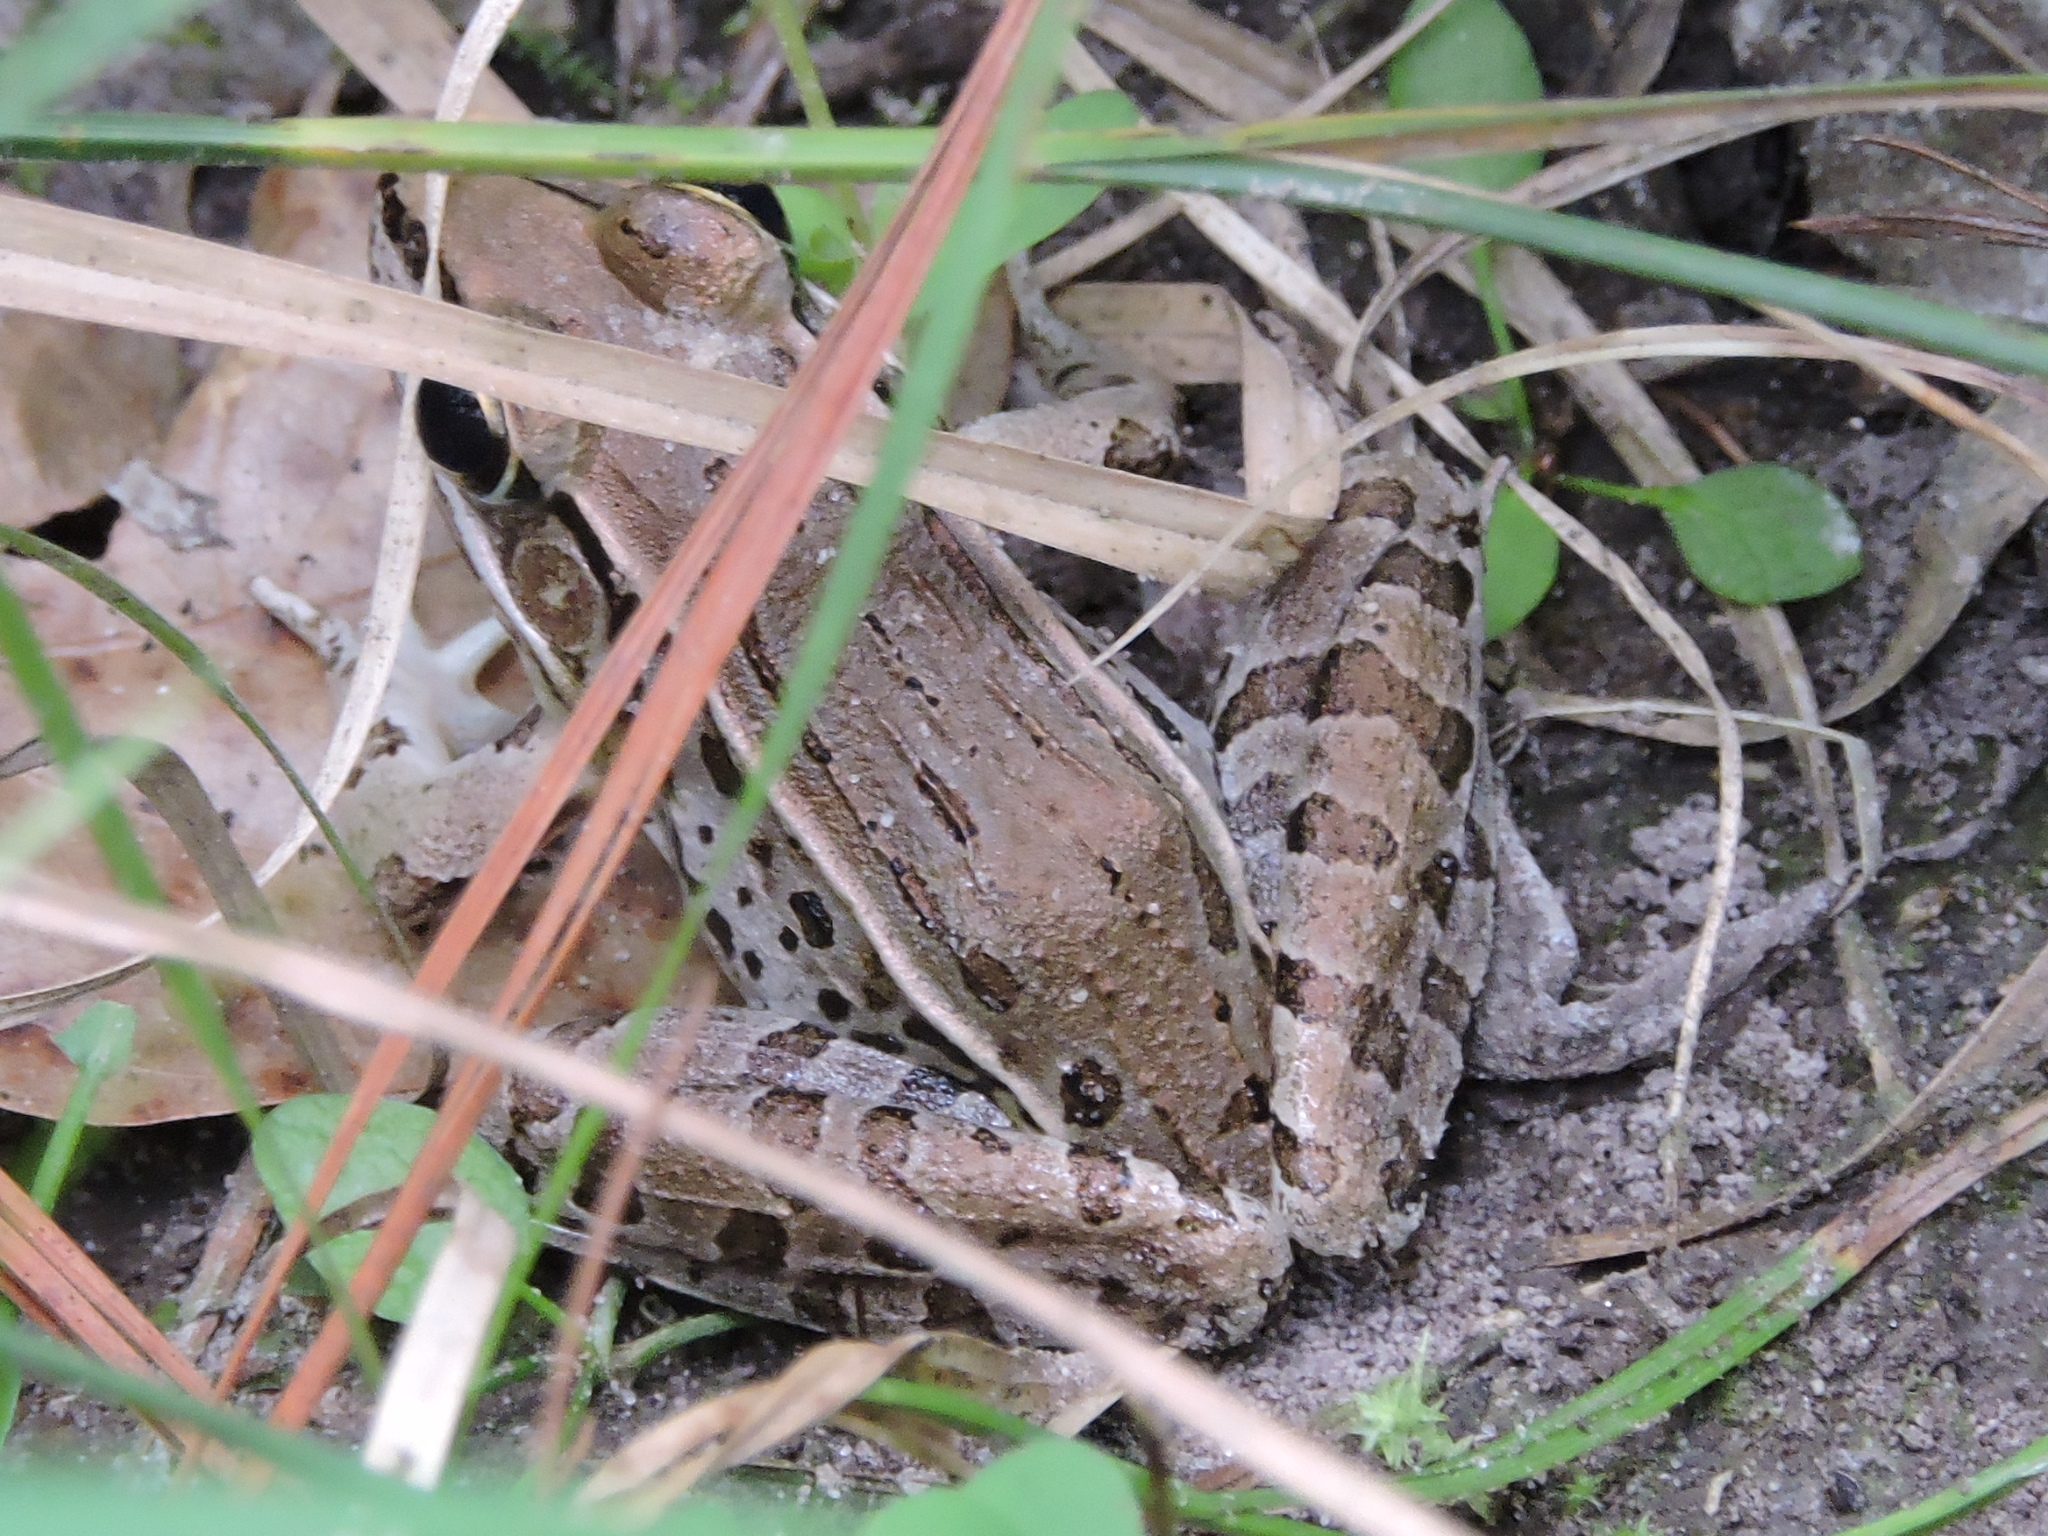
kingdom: Animalia
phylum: Chordata
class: Amphibia
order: Anura
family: Ranidae
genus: Lithobates
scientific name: Lithobates sphenocephalus
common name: Southern leopard frog
